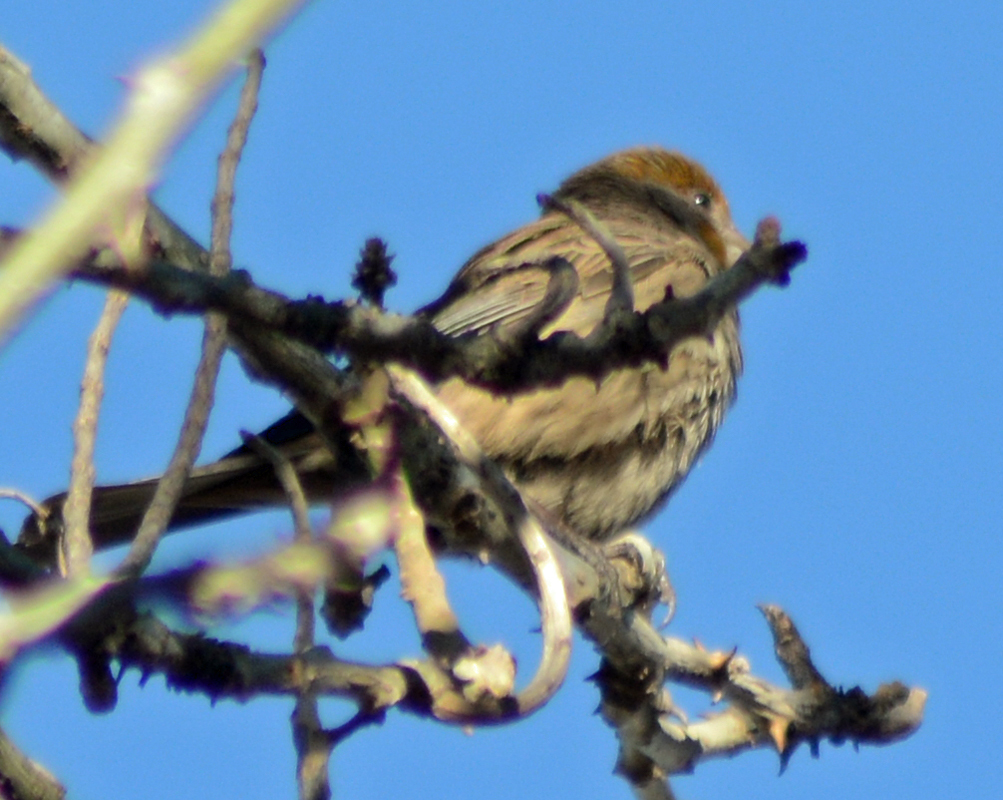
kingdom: Animalia
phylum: Chordata
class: Aves
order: Passeriformes
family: Fringillidae
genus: Haemorhous
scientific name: Haemorhous mexicanus
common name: House finch
